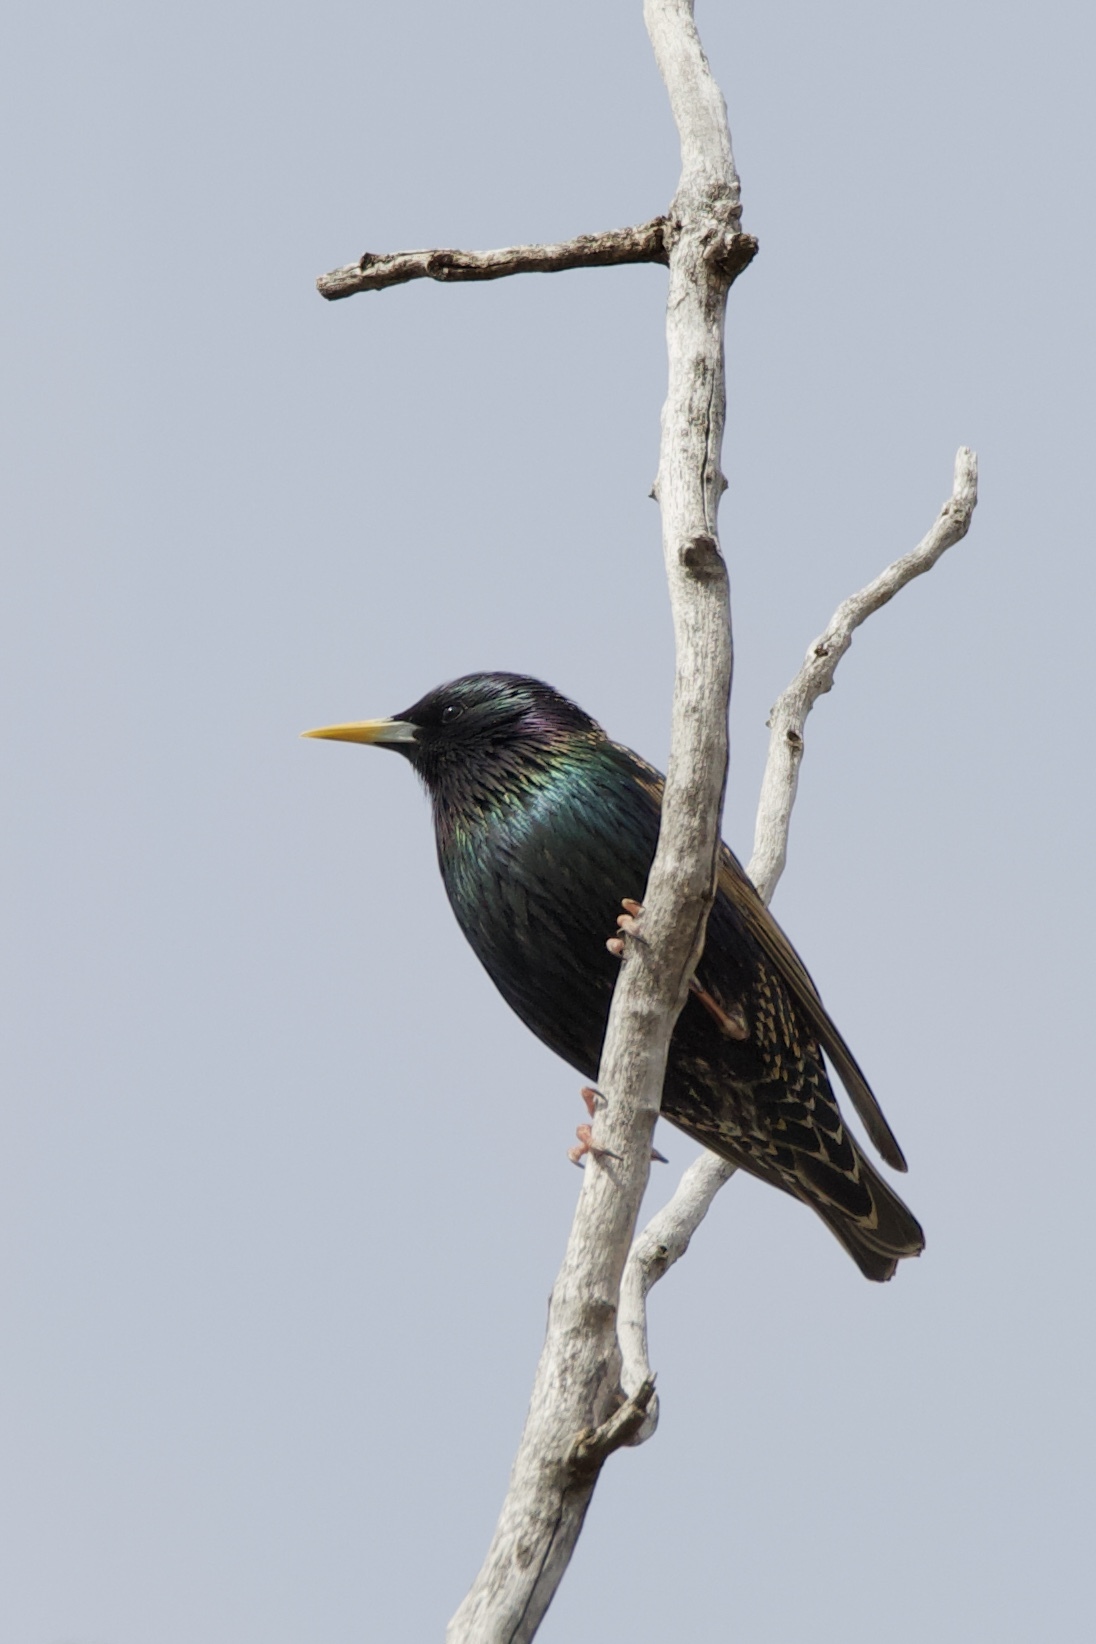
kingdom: Animalia
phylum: Chordata
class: Aves
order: Passeriformes
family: Sturnidae
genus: Sturnus
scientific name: Sturnus vulgaris
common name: Common starling
